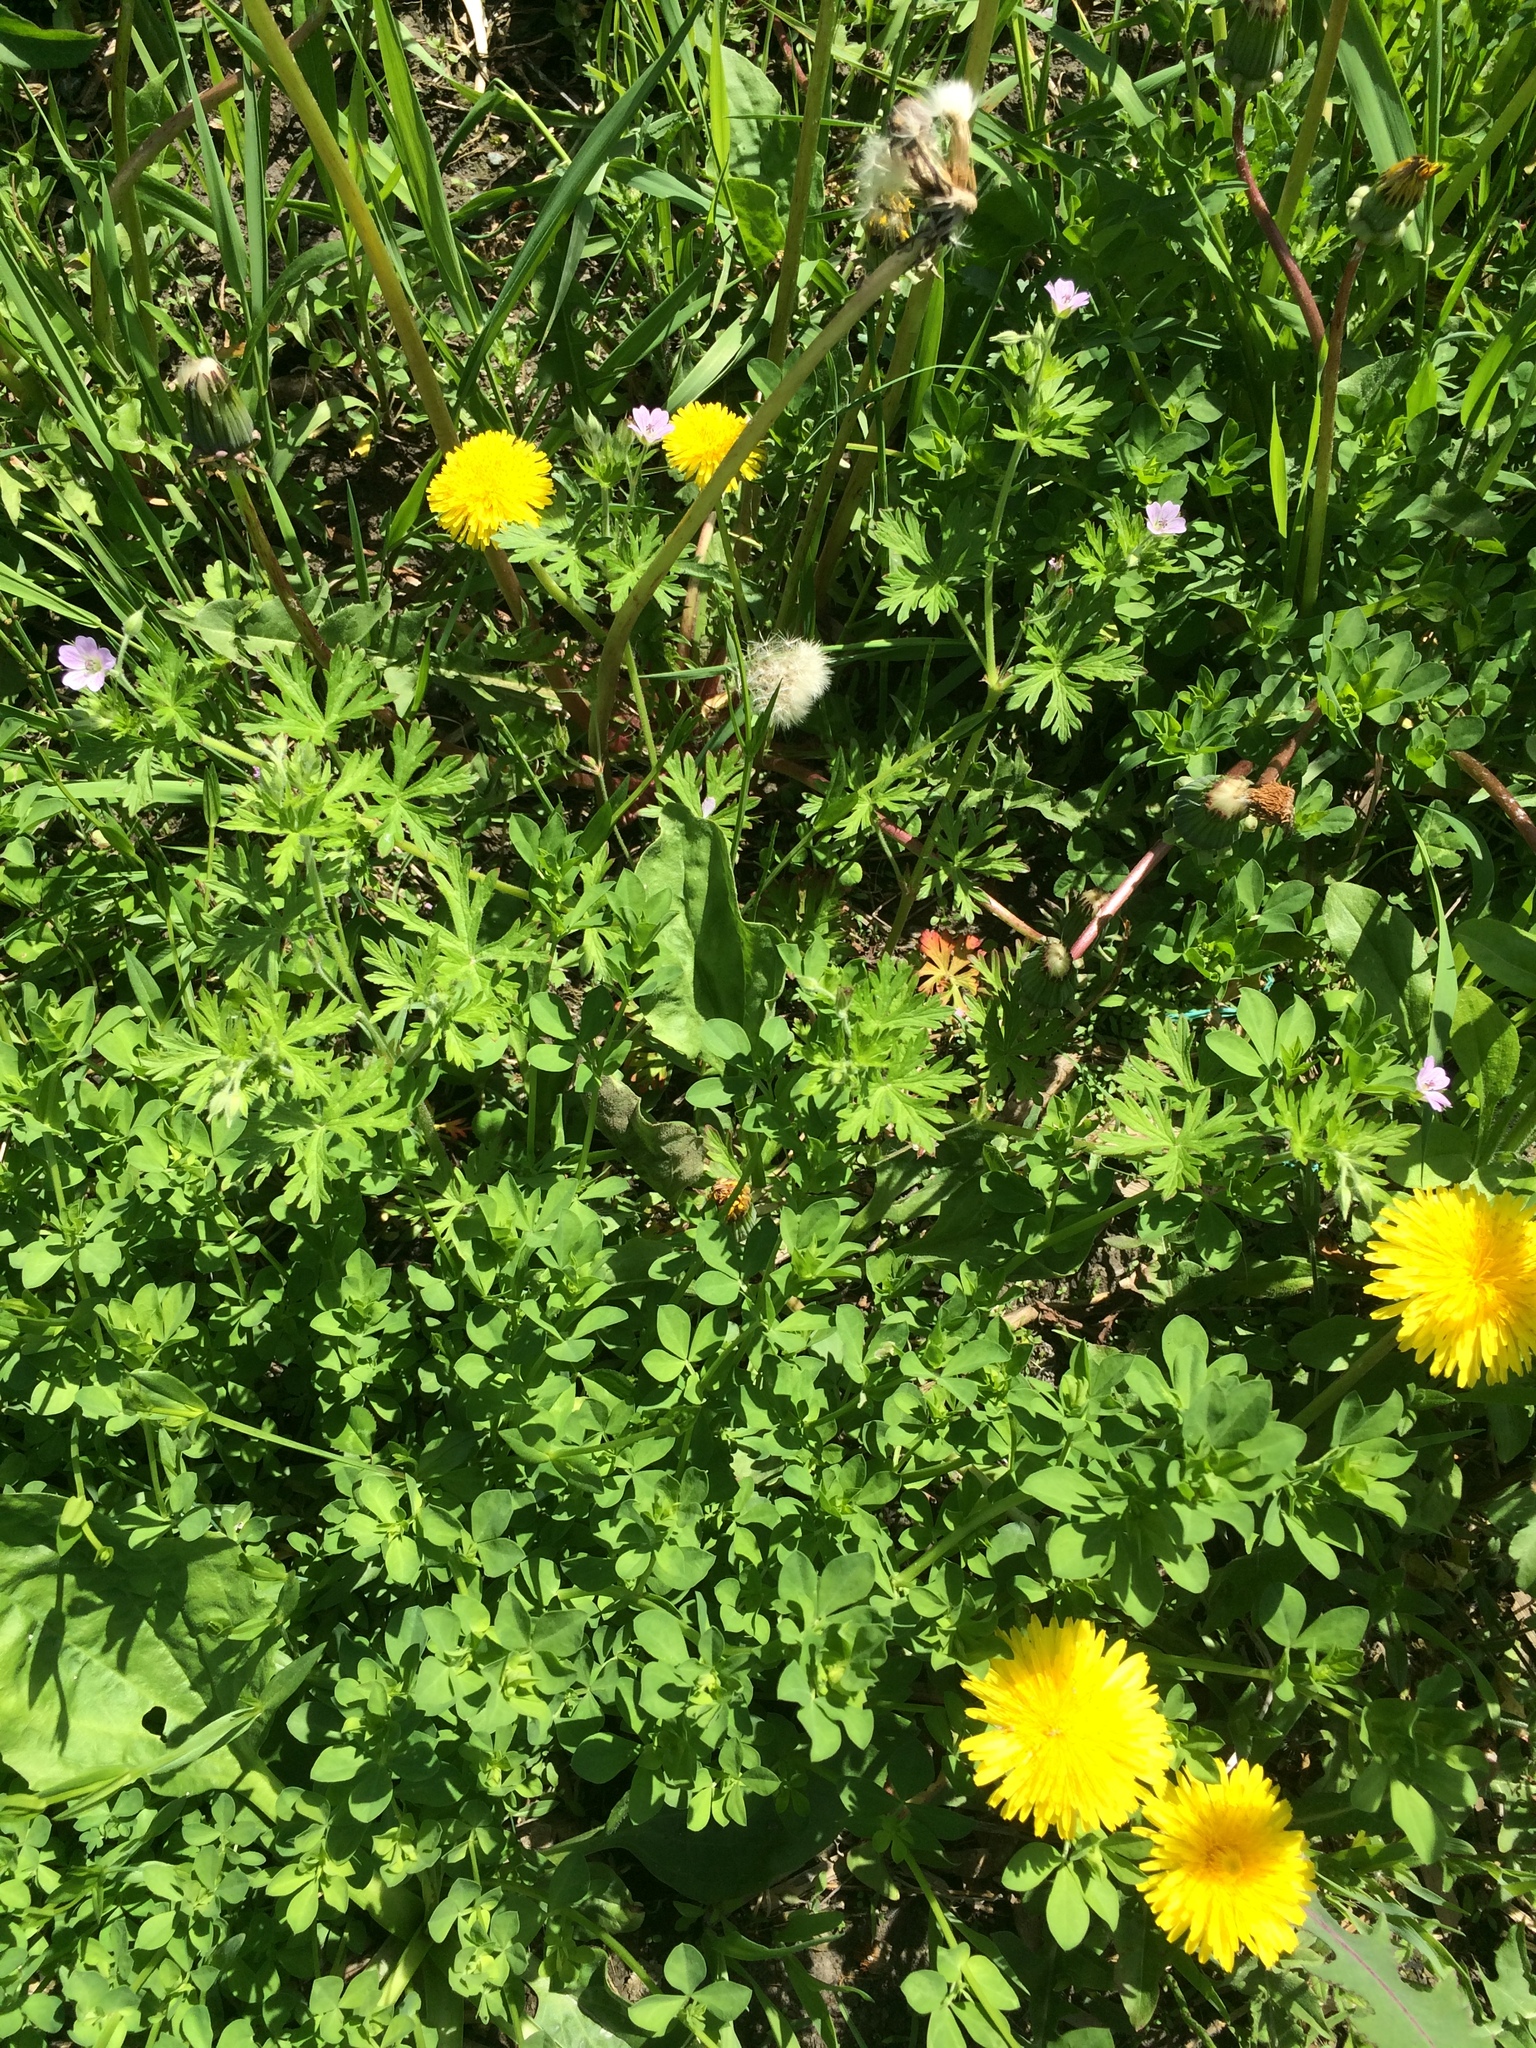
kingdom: Plantae
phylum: Tracheophyta
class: Magnoliopsida
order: Asterales
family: Asteraceae
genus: Taraxacum
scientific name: Taraxacum officinale
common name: Common dandelion
